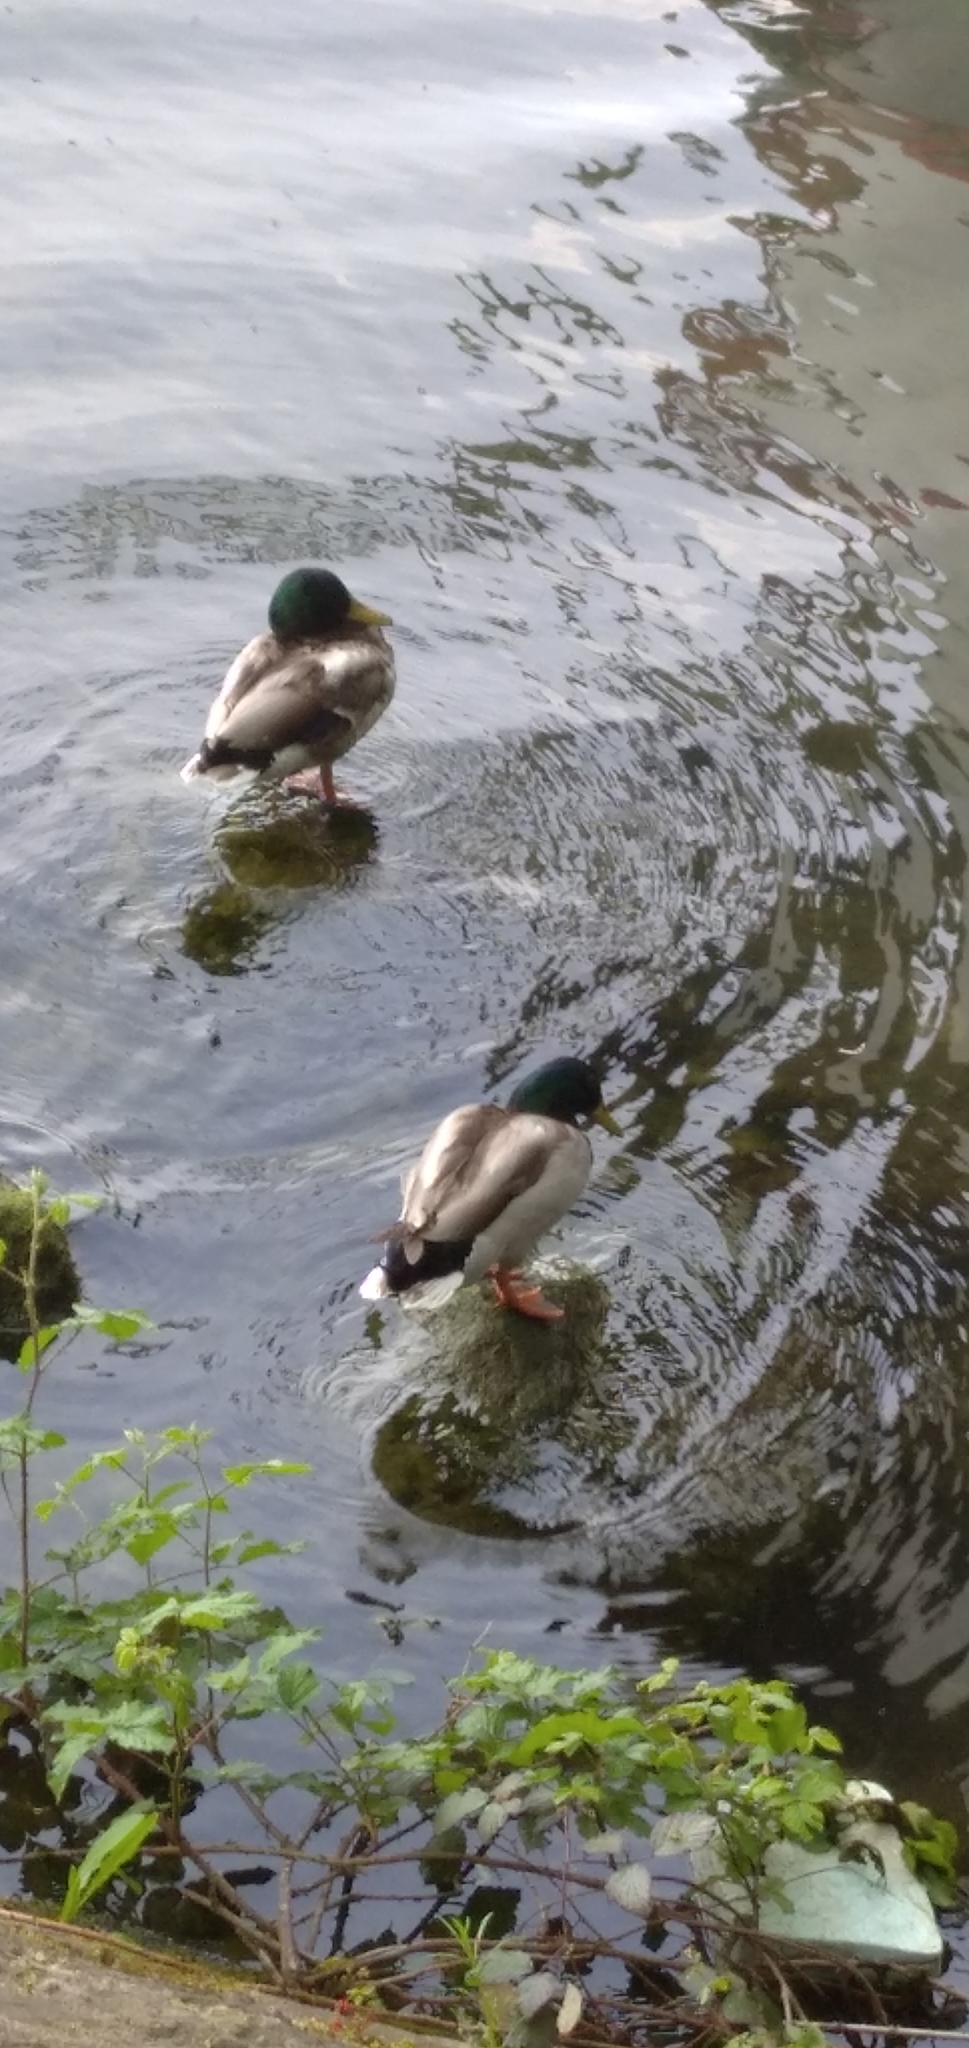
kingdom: Animalia
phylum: Chordata
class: Aves
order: Anseriformes
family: Anatidae
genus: Anas
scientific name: Anas platyrhynchos
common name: Mallard
